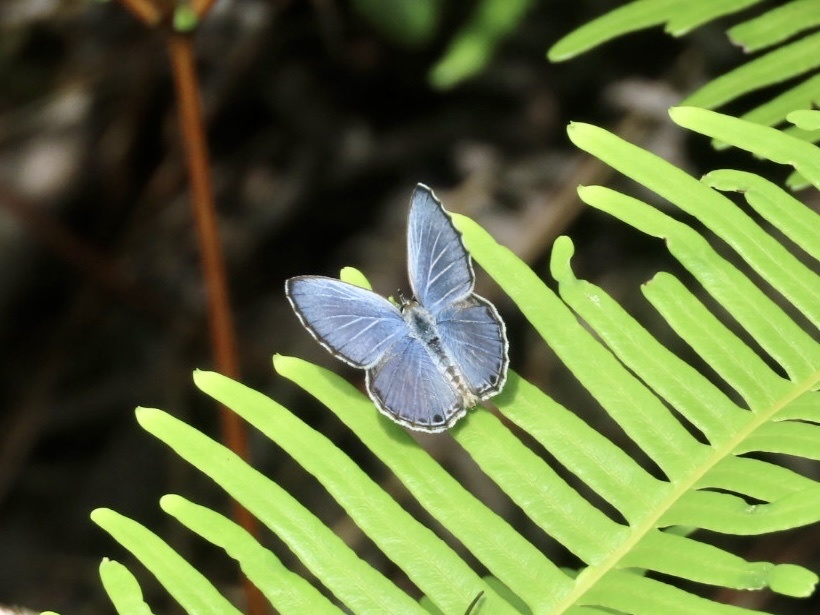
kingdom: Animalia
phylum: Arthropoda
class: Insecta
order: Lepidoptera
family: Lycaenidae
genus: Chilades
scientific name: Chilades laius
